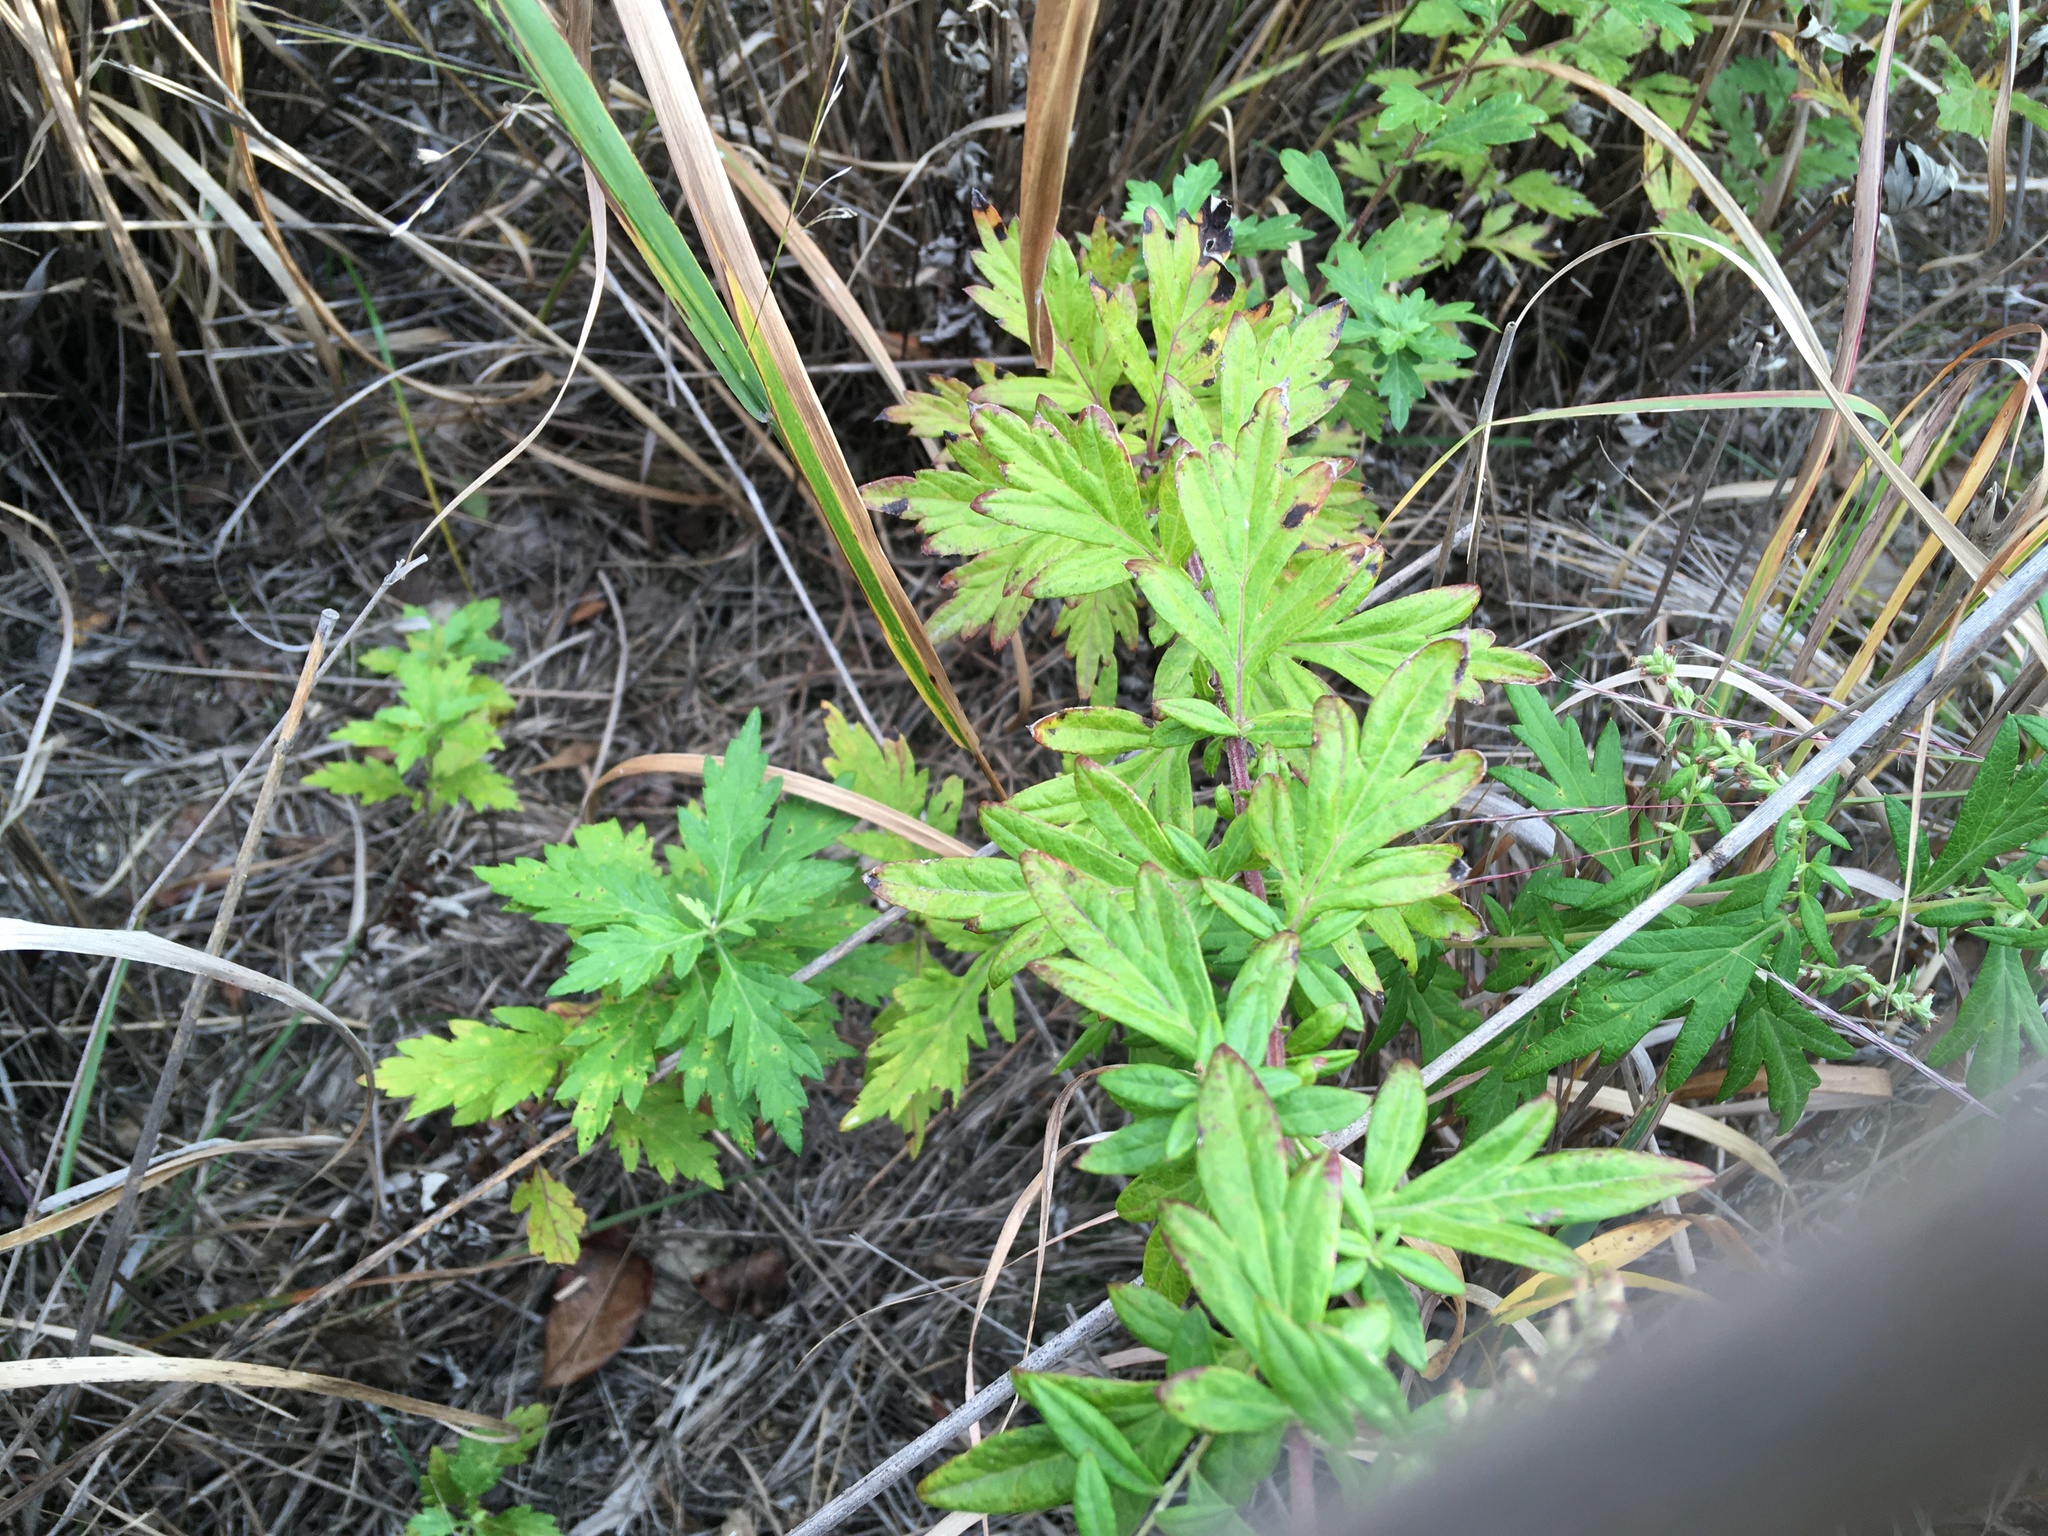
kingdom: Plantae
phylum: Tracheophyta
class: Magnoliopsida
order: Asterales
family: Asteraceae
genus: Artemisia
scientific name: Artemisia vulgaris
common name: Mugwort
